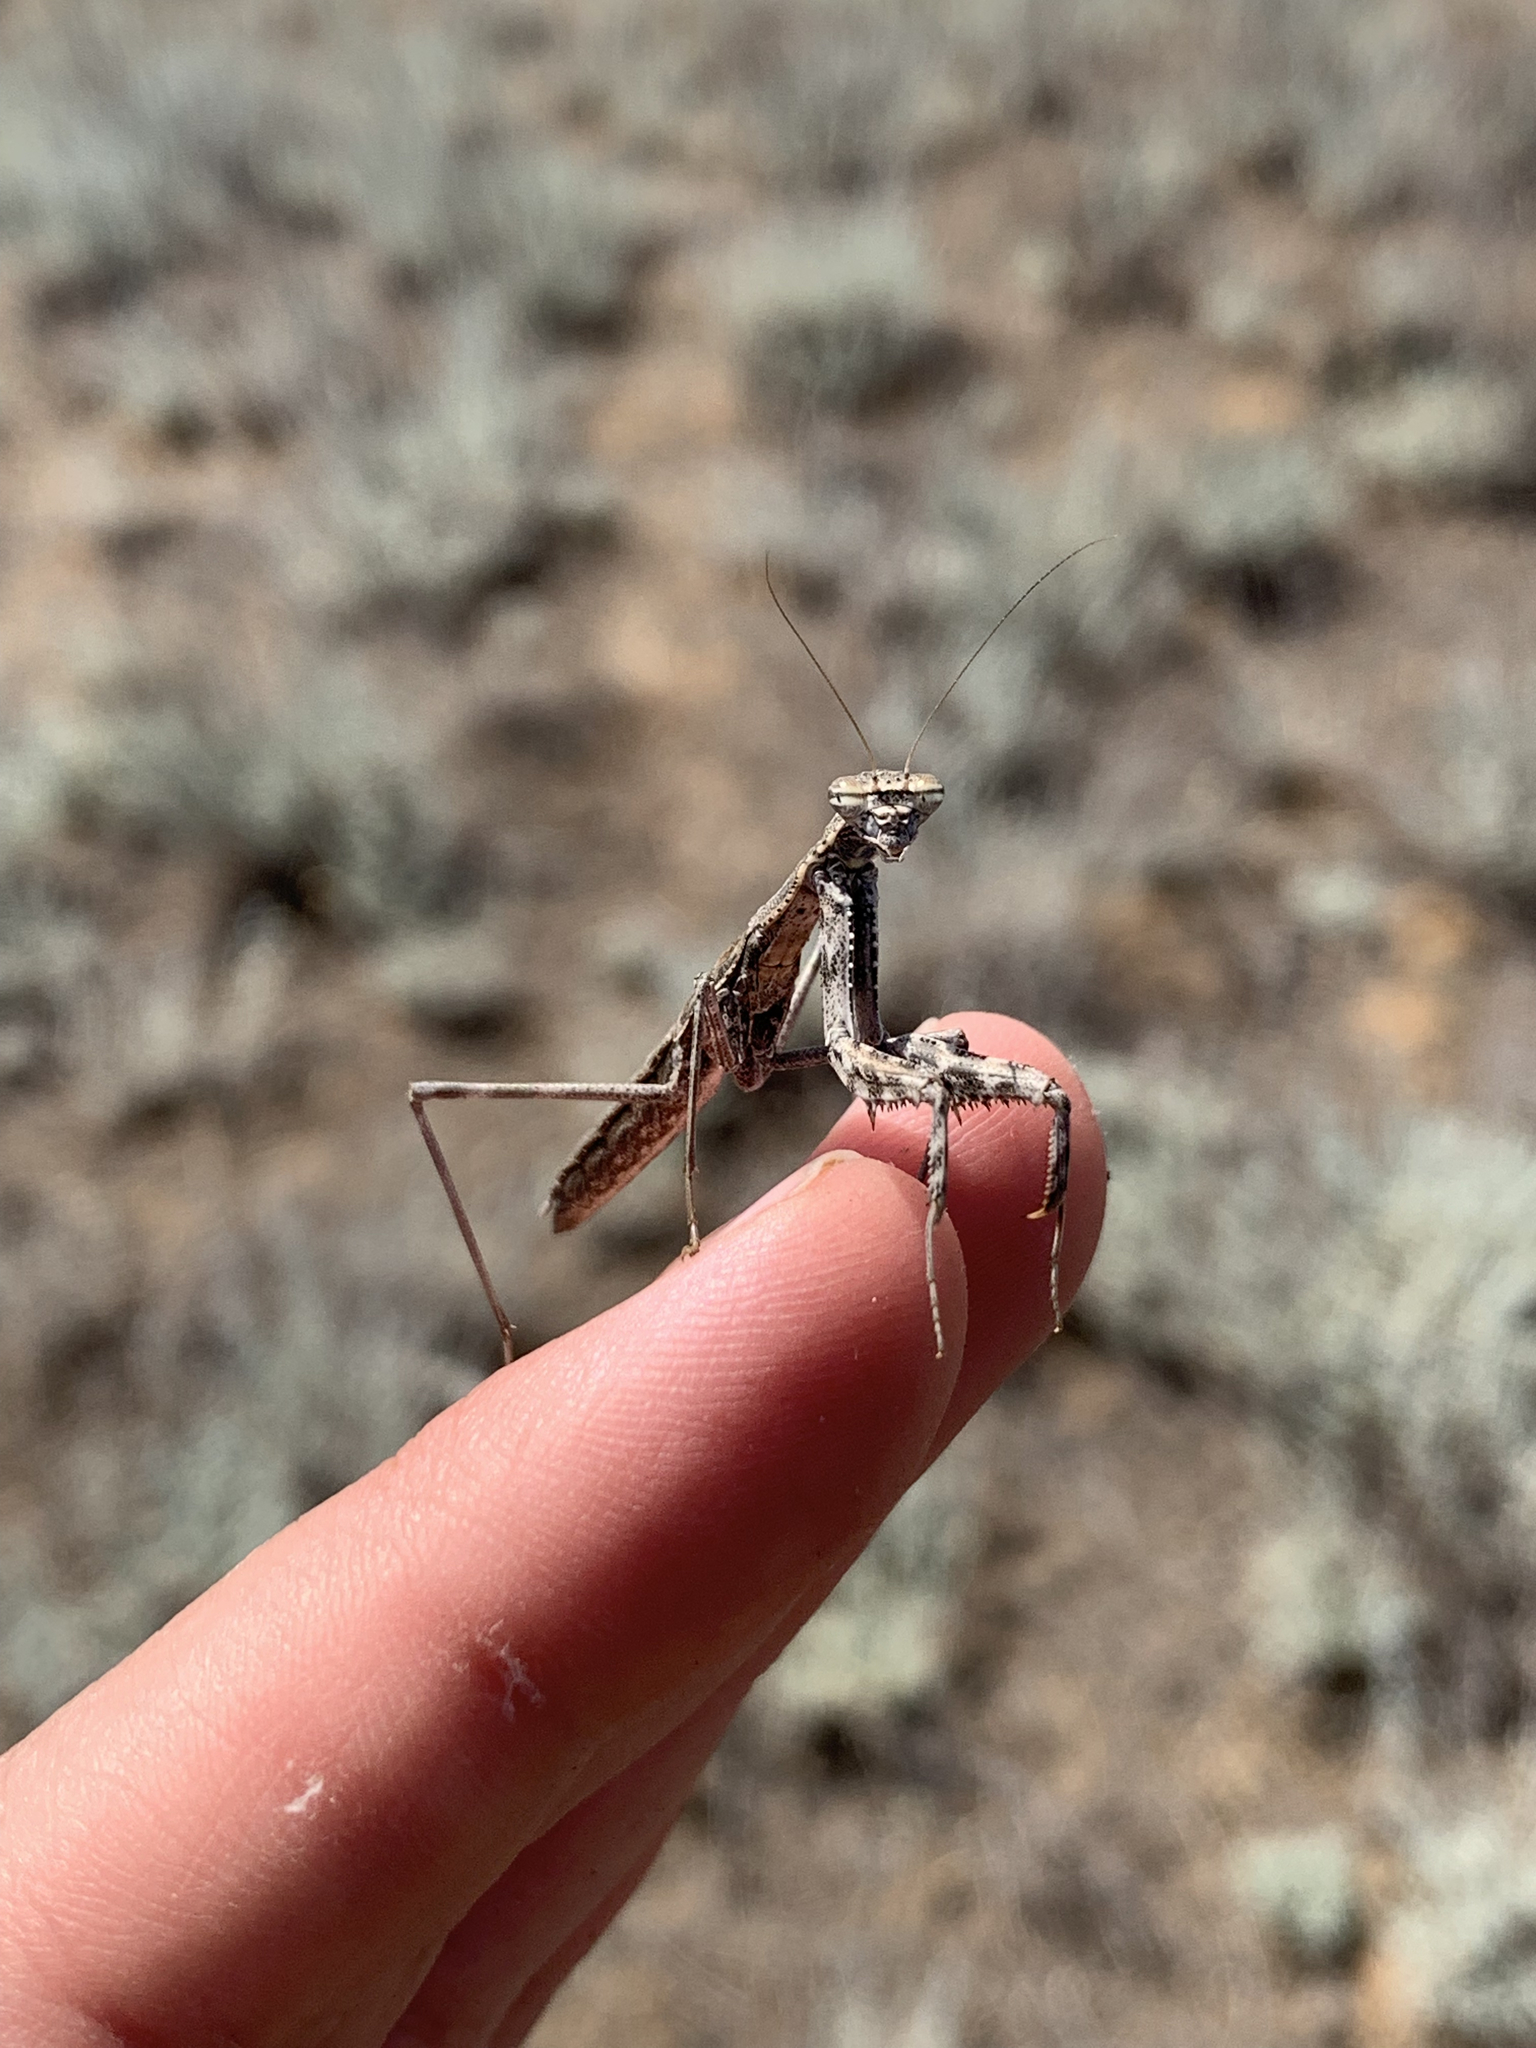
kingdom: Animalia
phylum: Arthropoda
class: Insecta
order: Mantodea
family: Rivetinidae
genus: Bolivaria
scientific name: Bolivaria brachyptera
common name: Bolivar's short winged mantis
